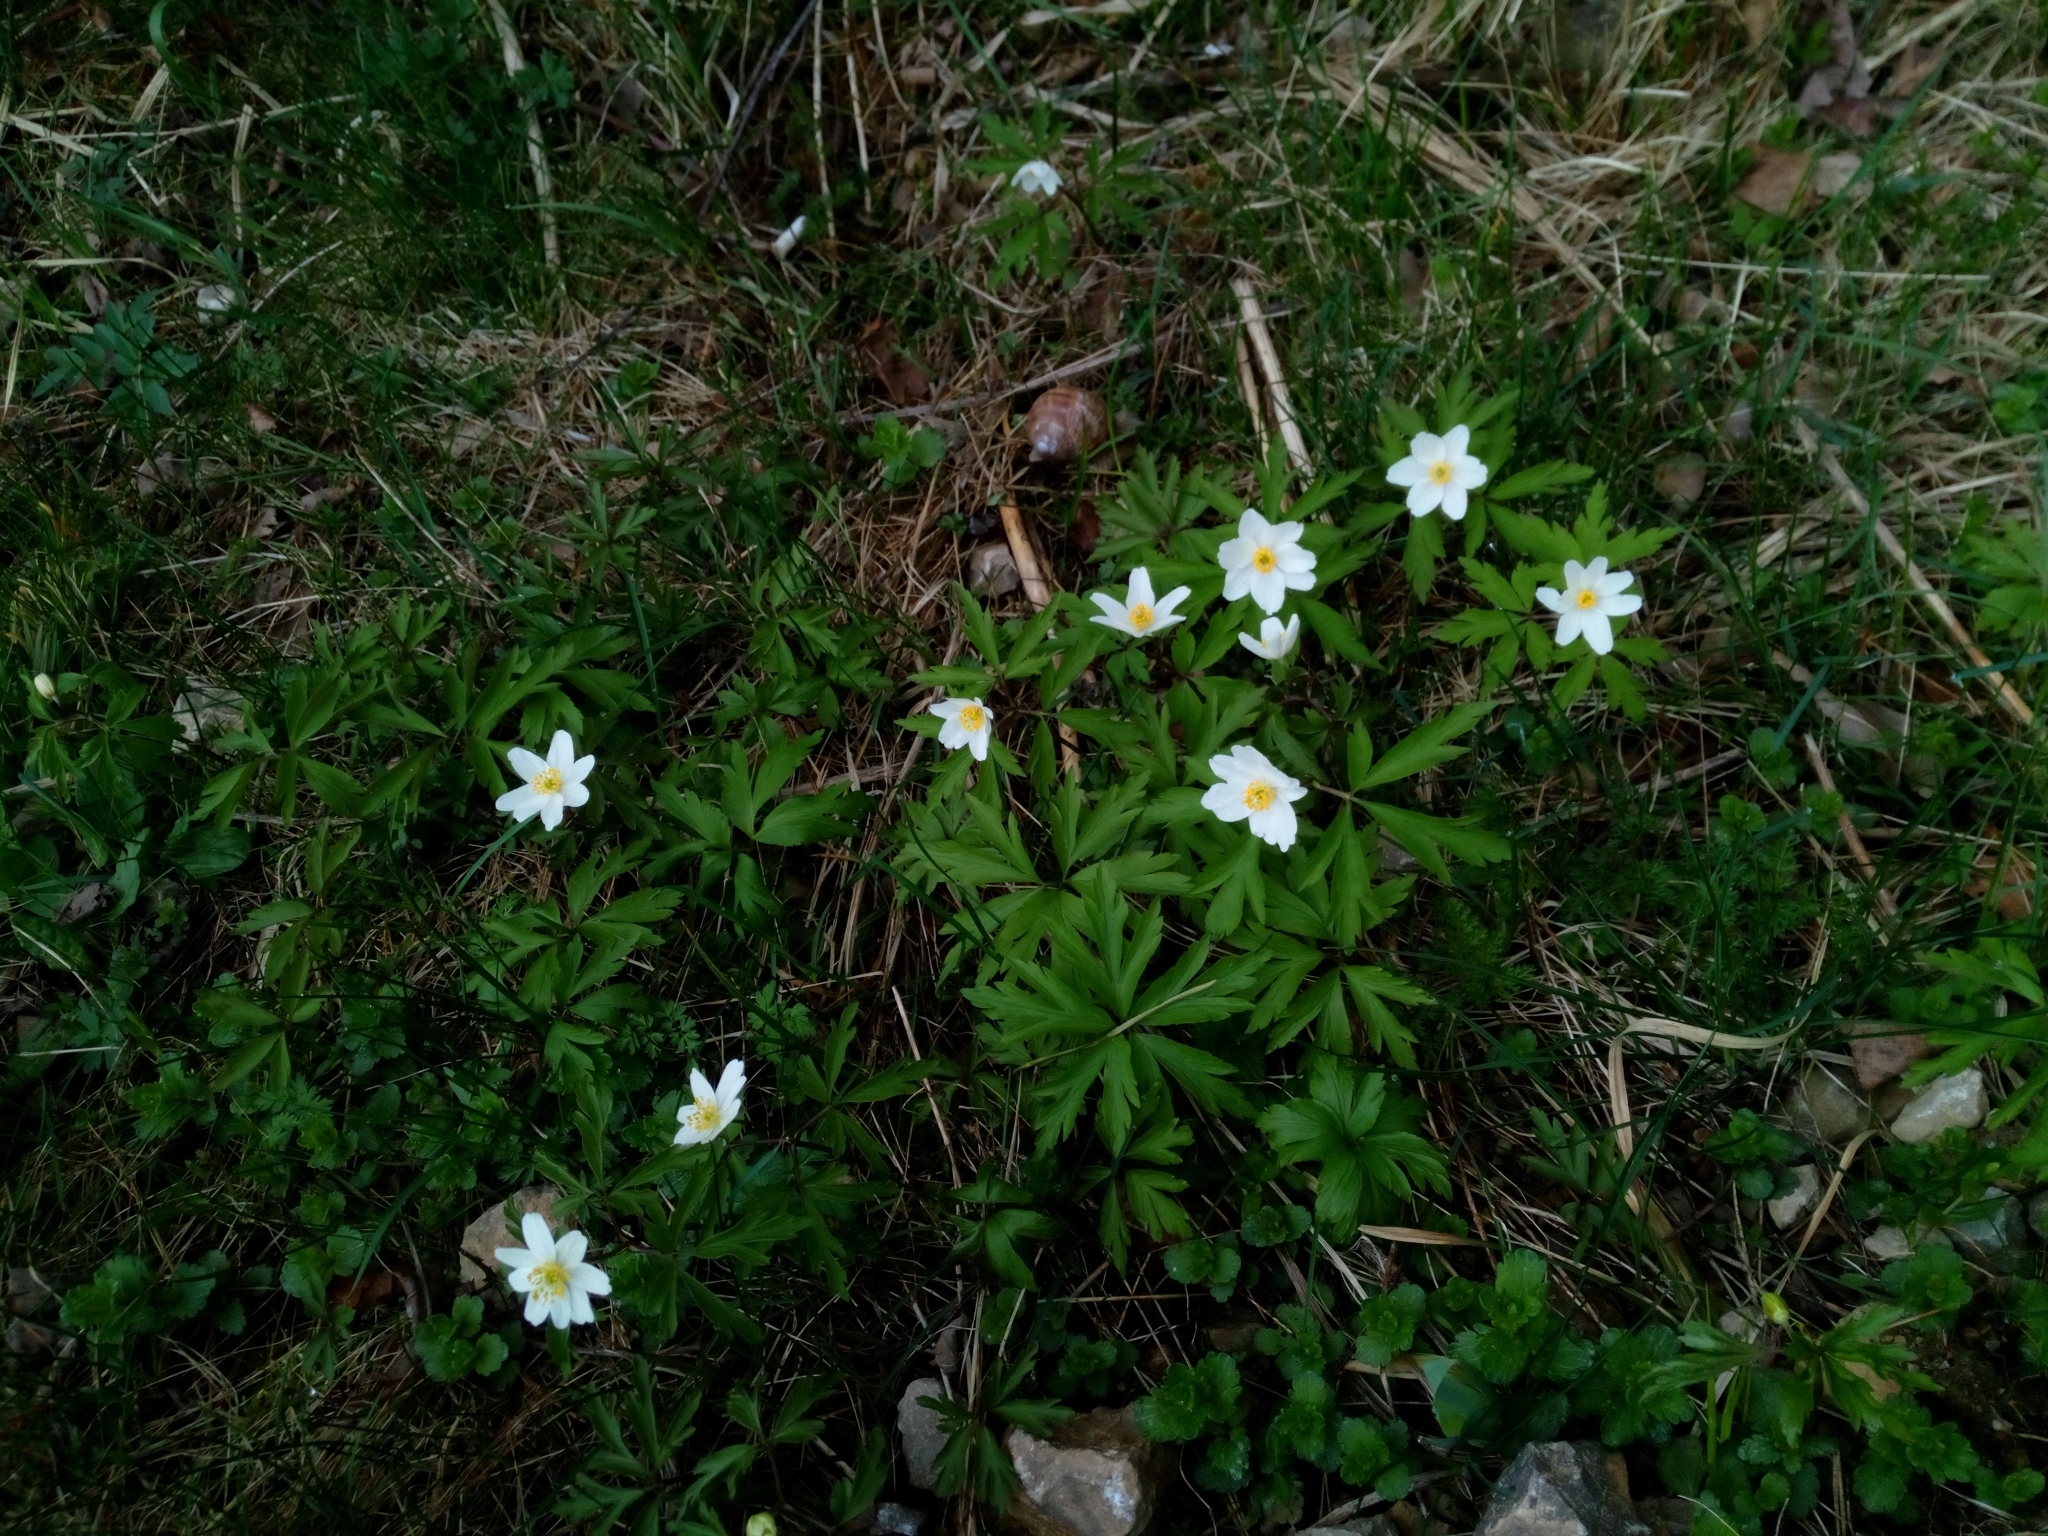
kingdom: Plantae
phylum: Tracheophyta
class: Magnoliopsida
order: Ranunculales
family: Ranunculaceae
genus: Anemone
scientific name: Anemone nemorosa
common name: Wood anemone
